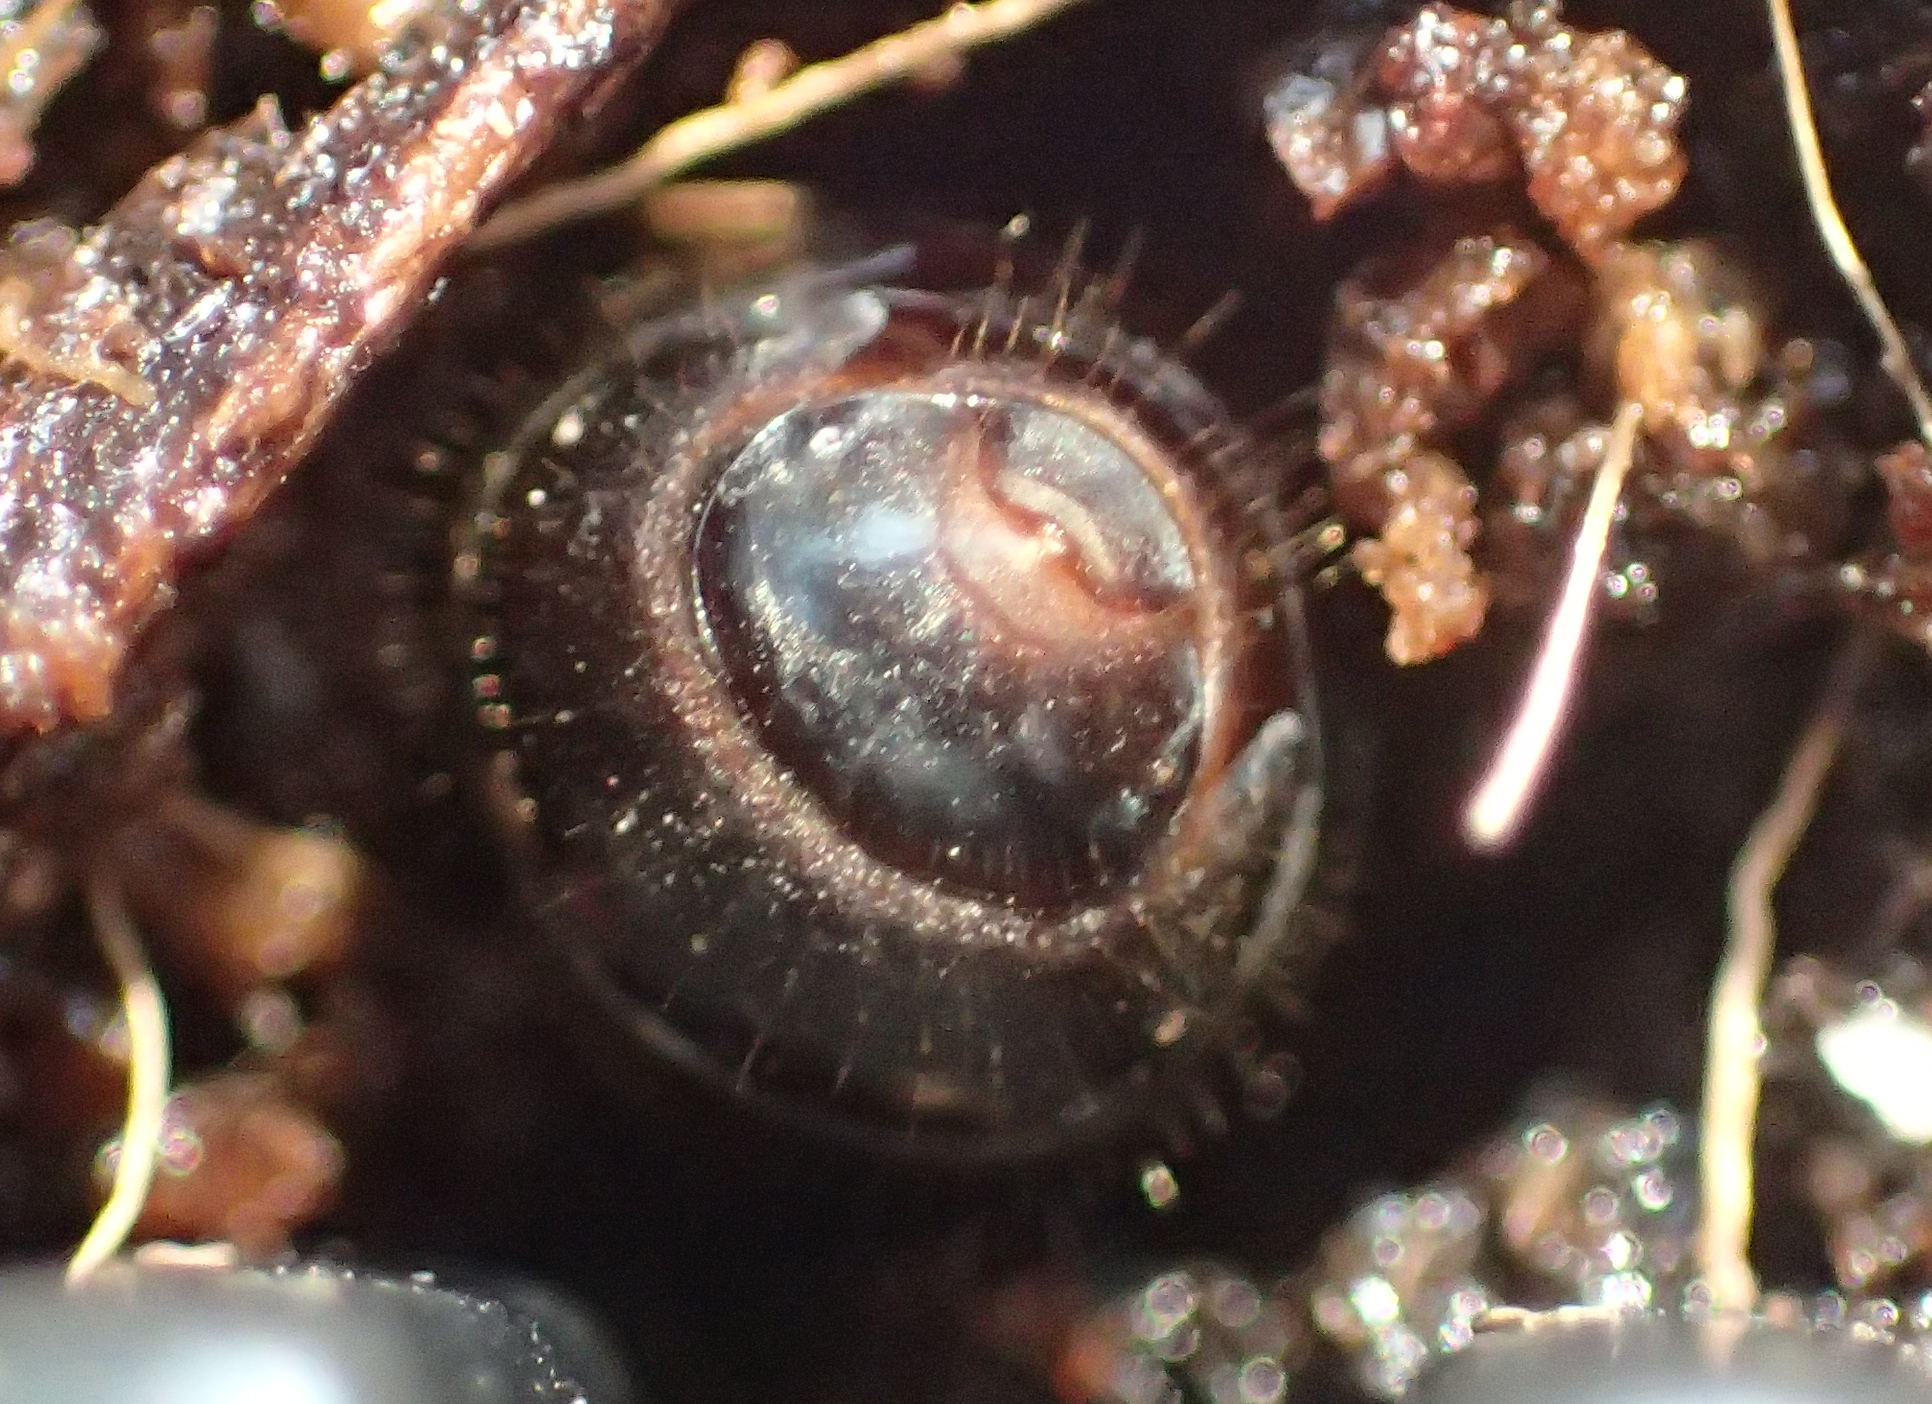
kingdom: Animalia
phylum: Arthropoda
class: Insecta
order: Hymenoptera
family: Formicidae
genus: Camponotus
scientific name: Camponotus herculeanus
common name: Hercules ant
